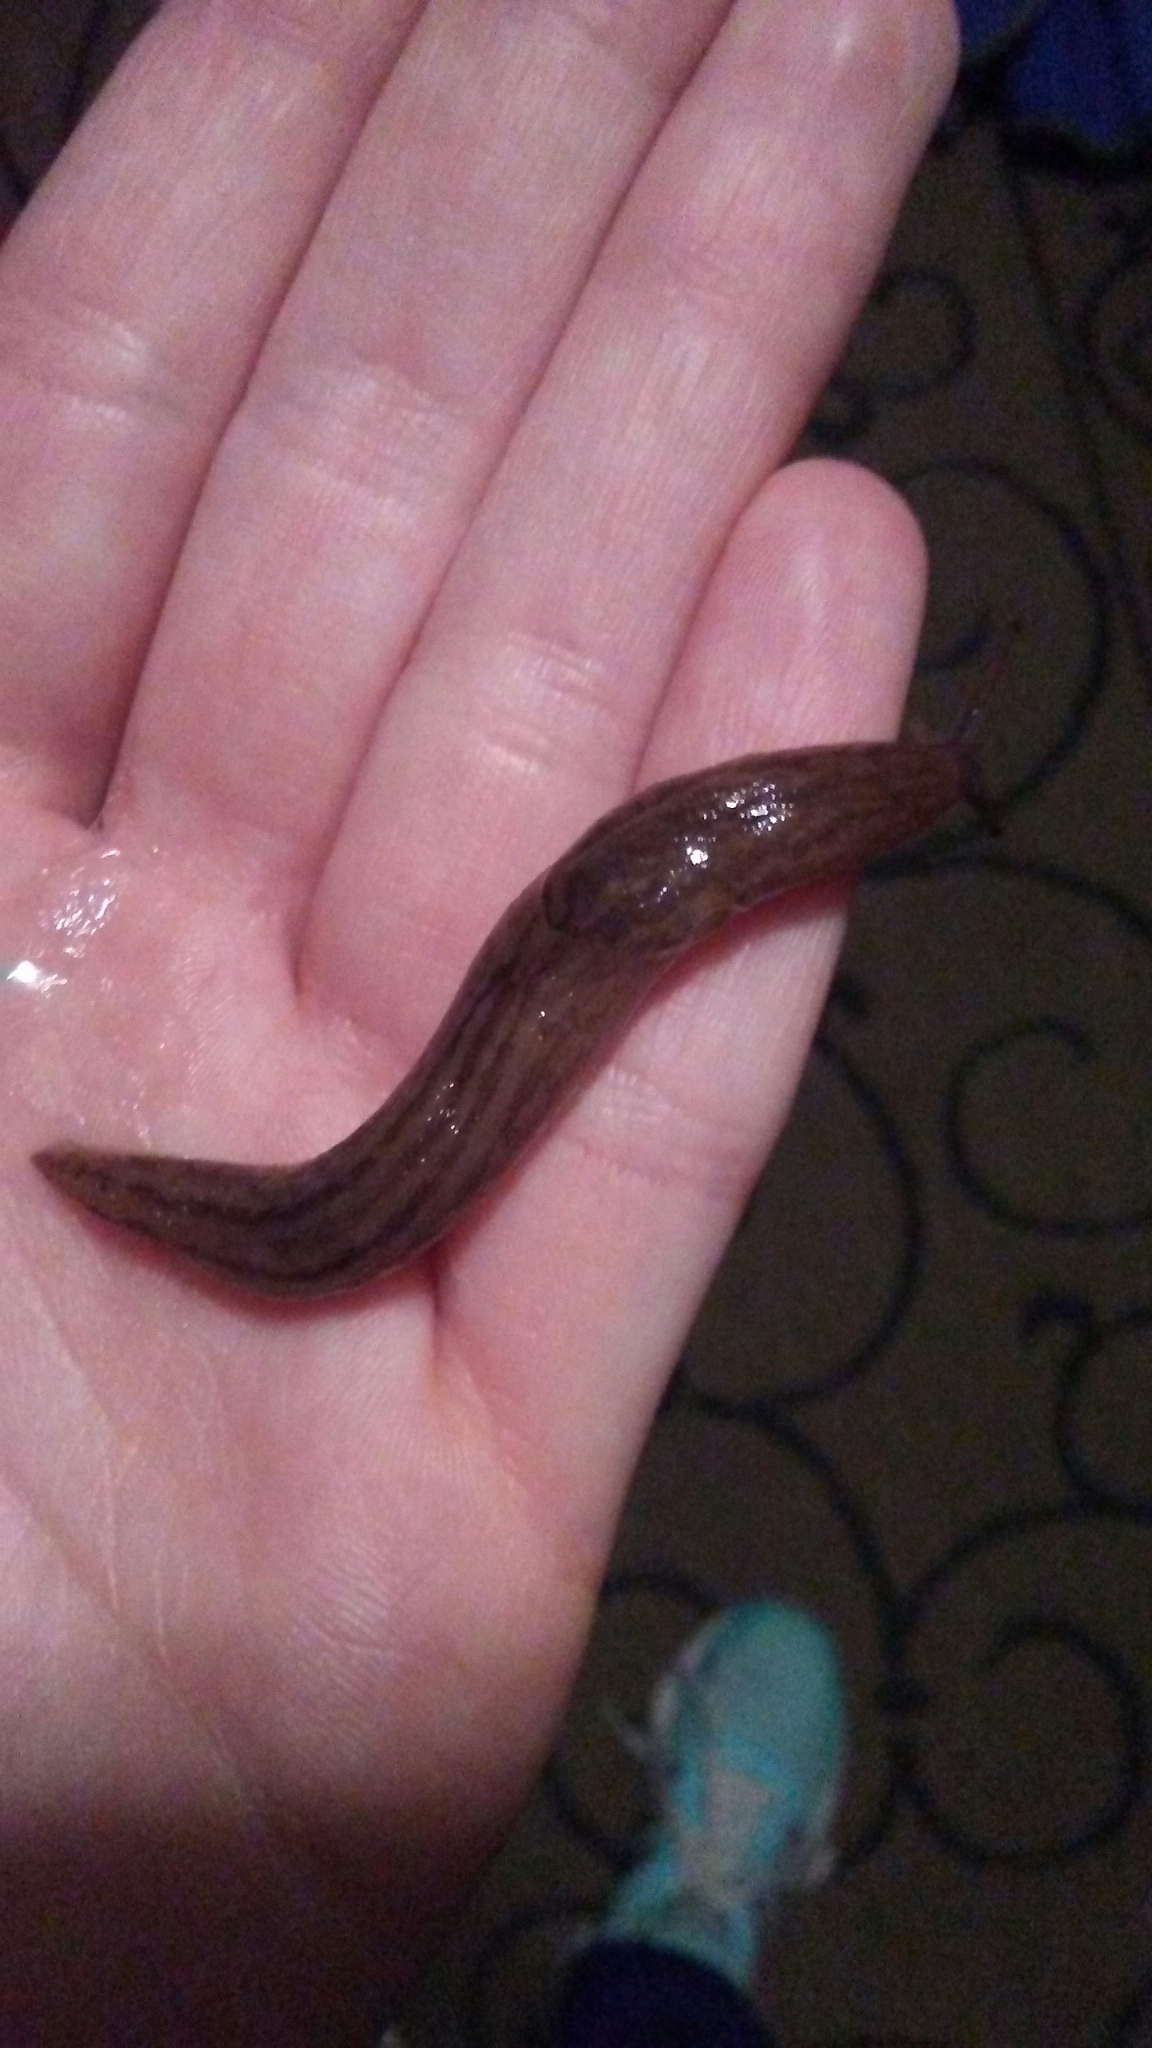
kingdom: Animalia
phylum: Mollusca
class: Gastropoda
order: Stylommatophora
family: Limacidae
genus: Ambigolimax
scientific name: Ambigolimax
